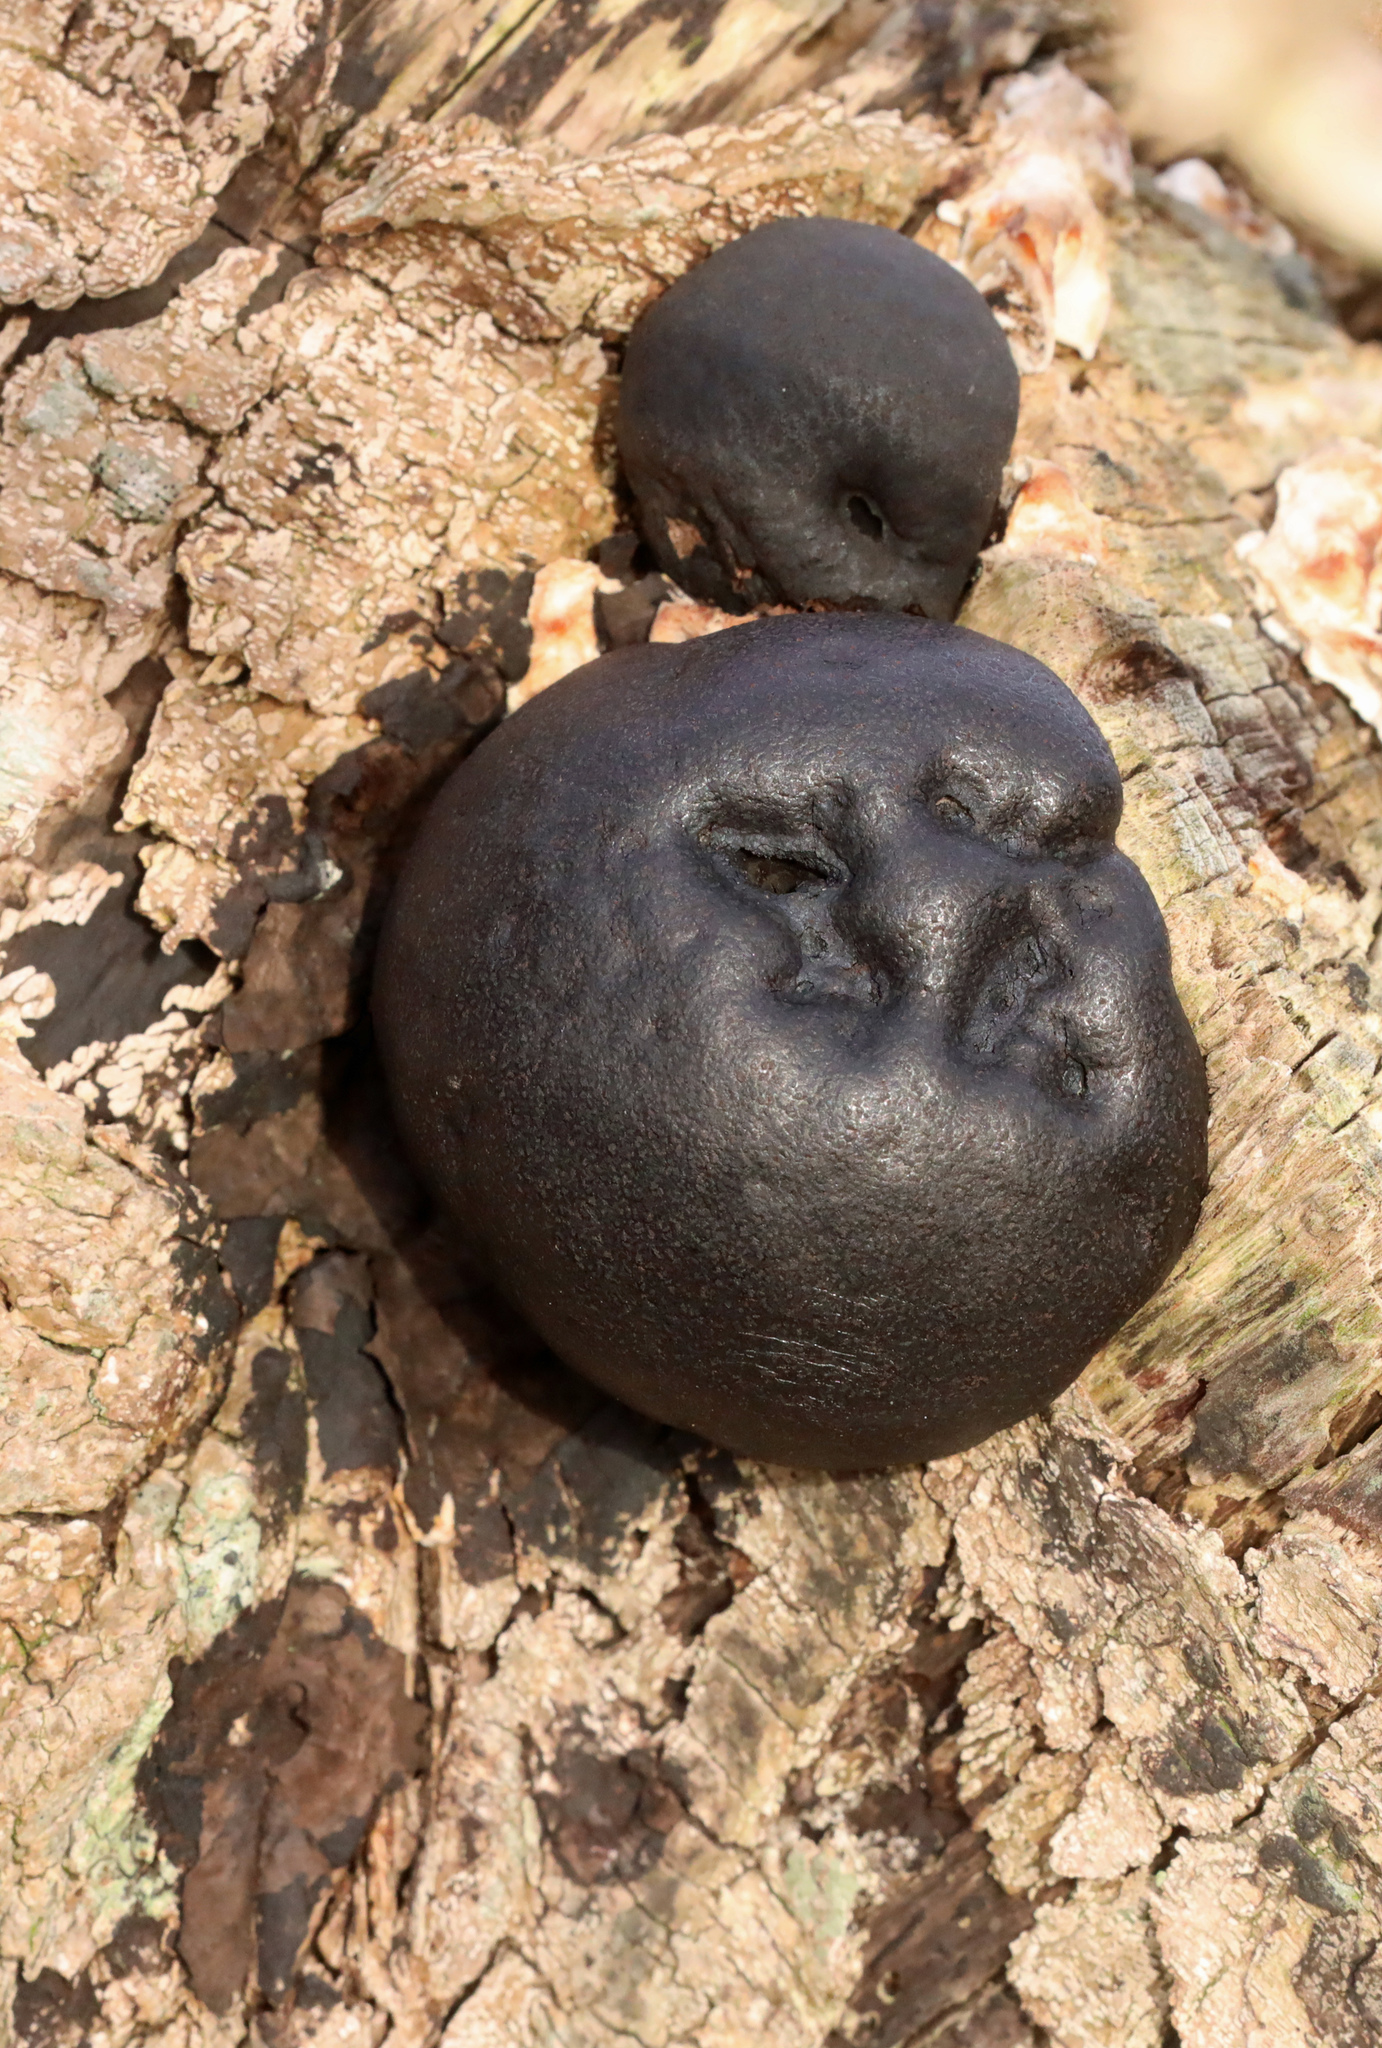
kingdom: Fungi
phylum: Ascomycota
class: Sordariomycetes
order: Xylariales
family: Hypoxylaceae
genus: Daldinia
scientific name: Daldinia concentrica
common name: Cramp balls
